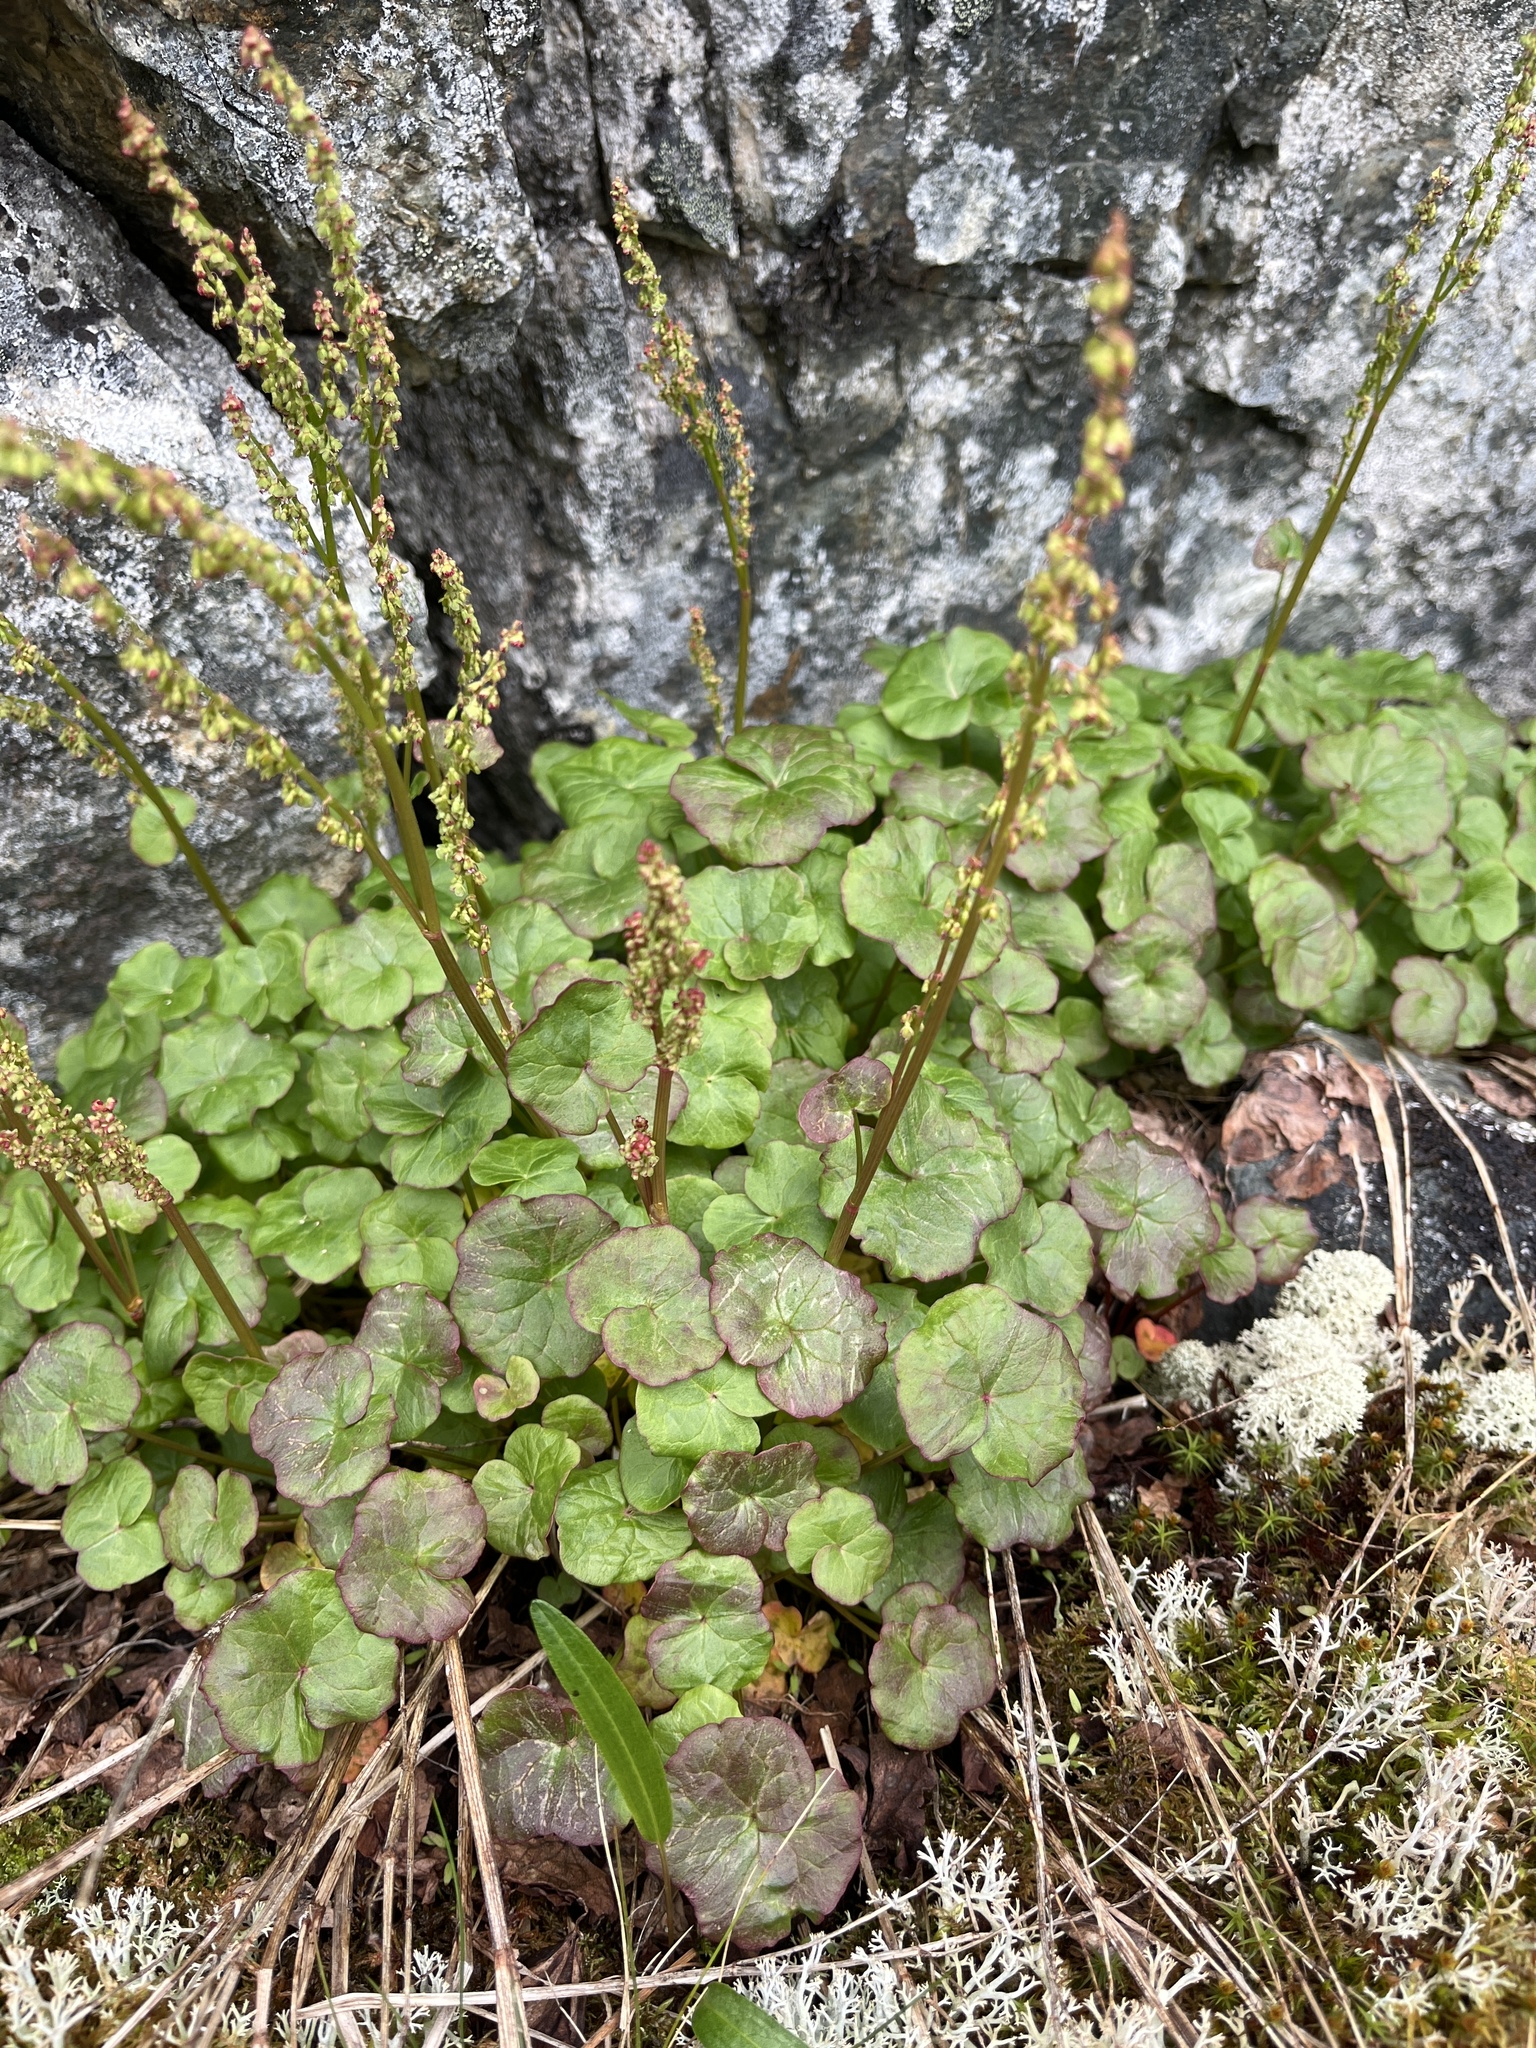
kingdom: Plantae
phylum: Tracheophyta
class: Magnoliopsida
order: Caryophyllales
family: Polygonaceae
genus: Oxyria
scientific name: Oxyria digyna
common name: Alpine mountain-sorrel
